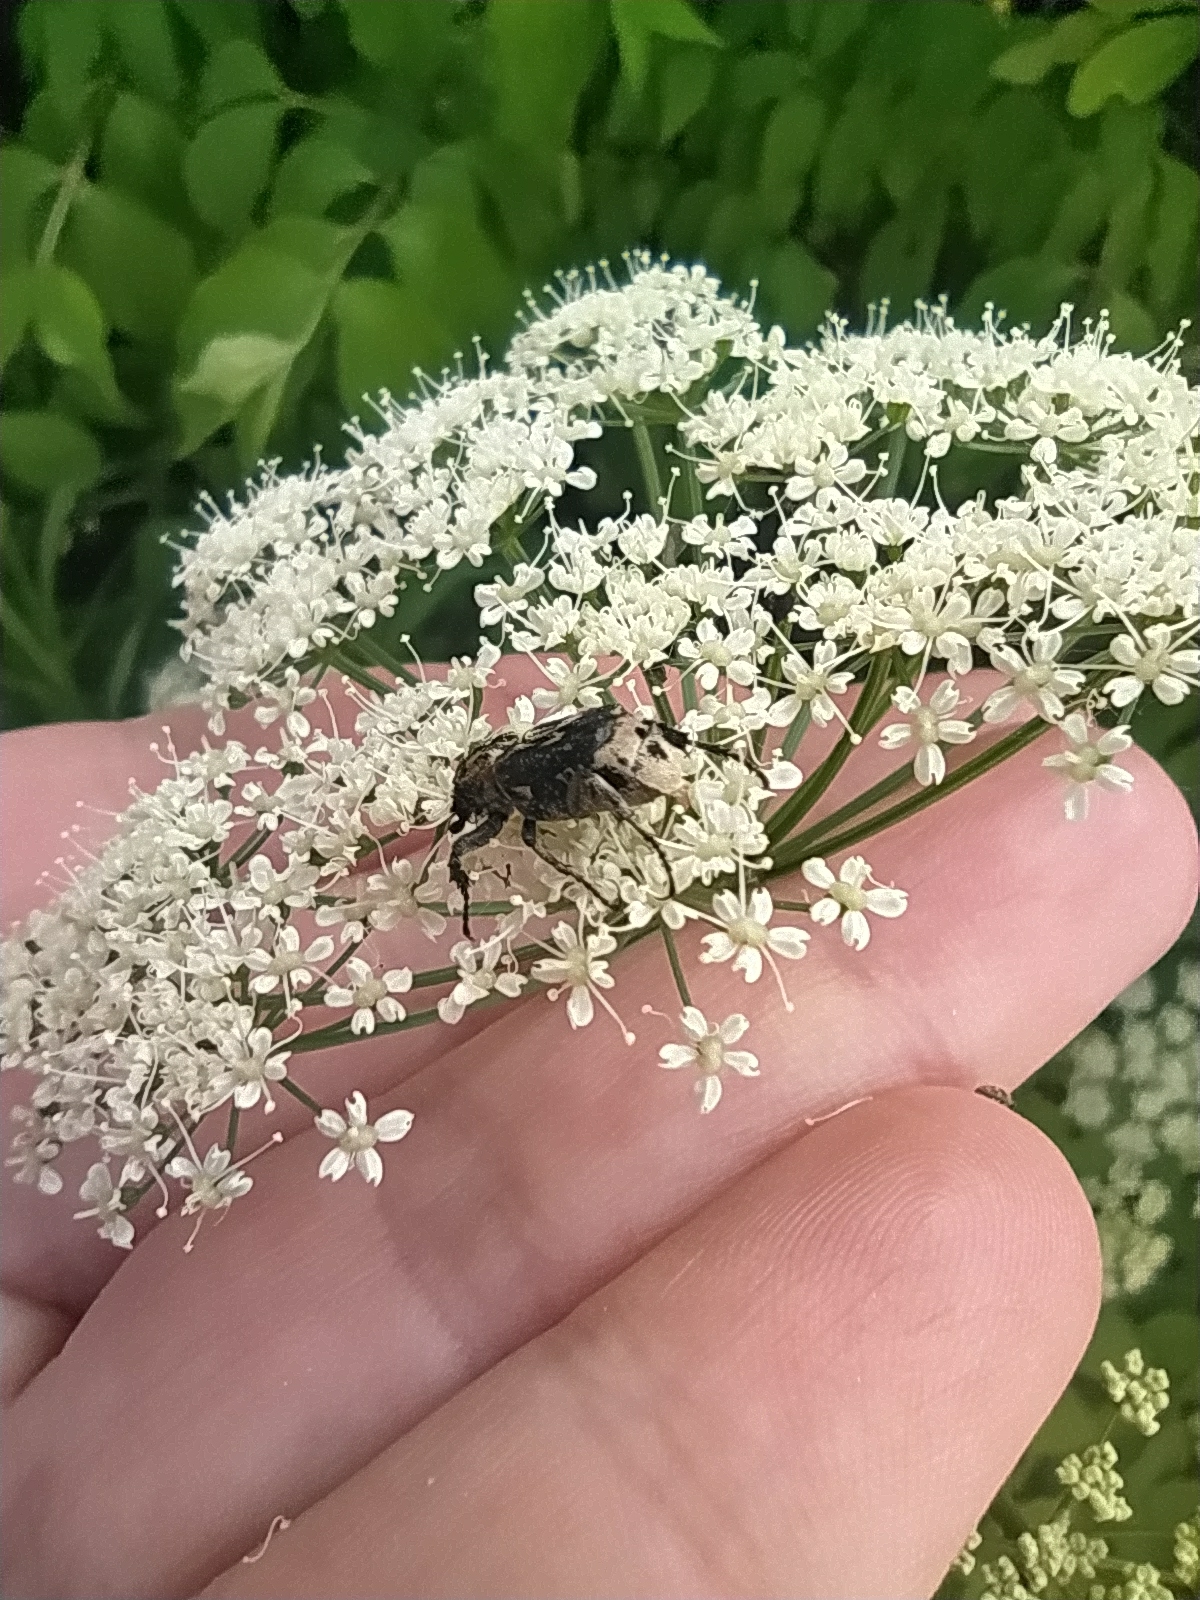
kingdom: Animalia
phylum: Arthropoda
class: Insecta
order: Coleoptera
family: Scarabaeidae
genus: Valgus
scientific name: Valgus hemipterus
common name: Bug flower chafer
